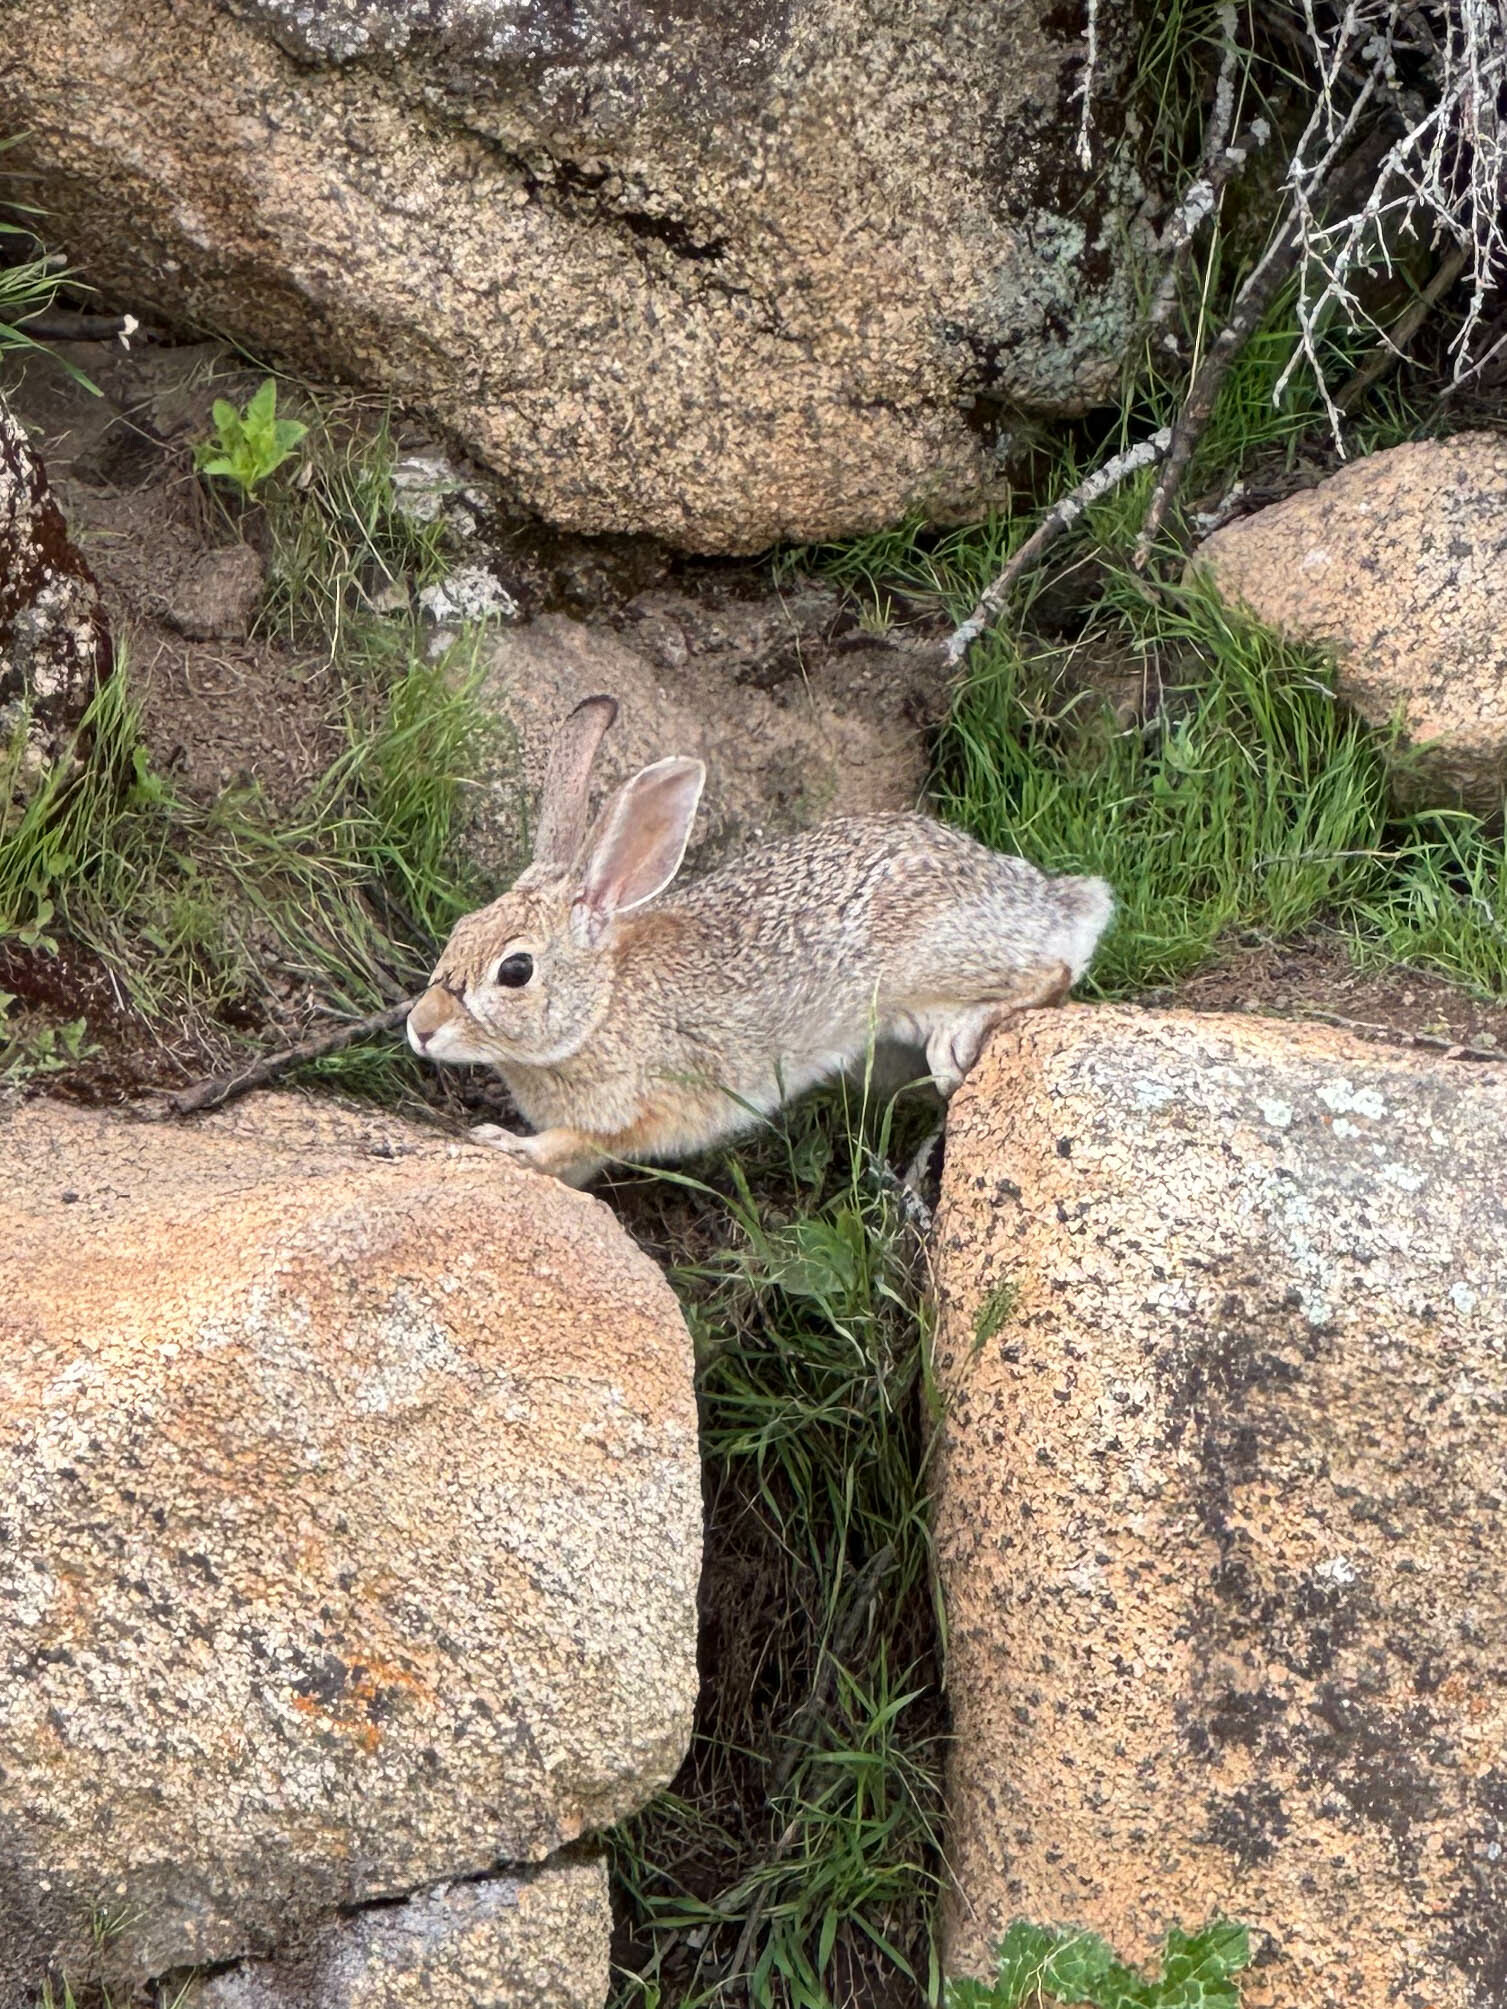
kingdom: Animalia
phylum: Chordata
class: Mammalia
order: Lagomorpha
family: Leporidae
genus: Sylvilagus
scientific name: Sylvilagus audubonii
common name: Desert cottontail
